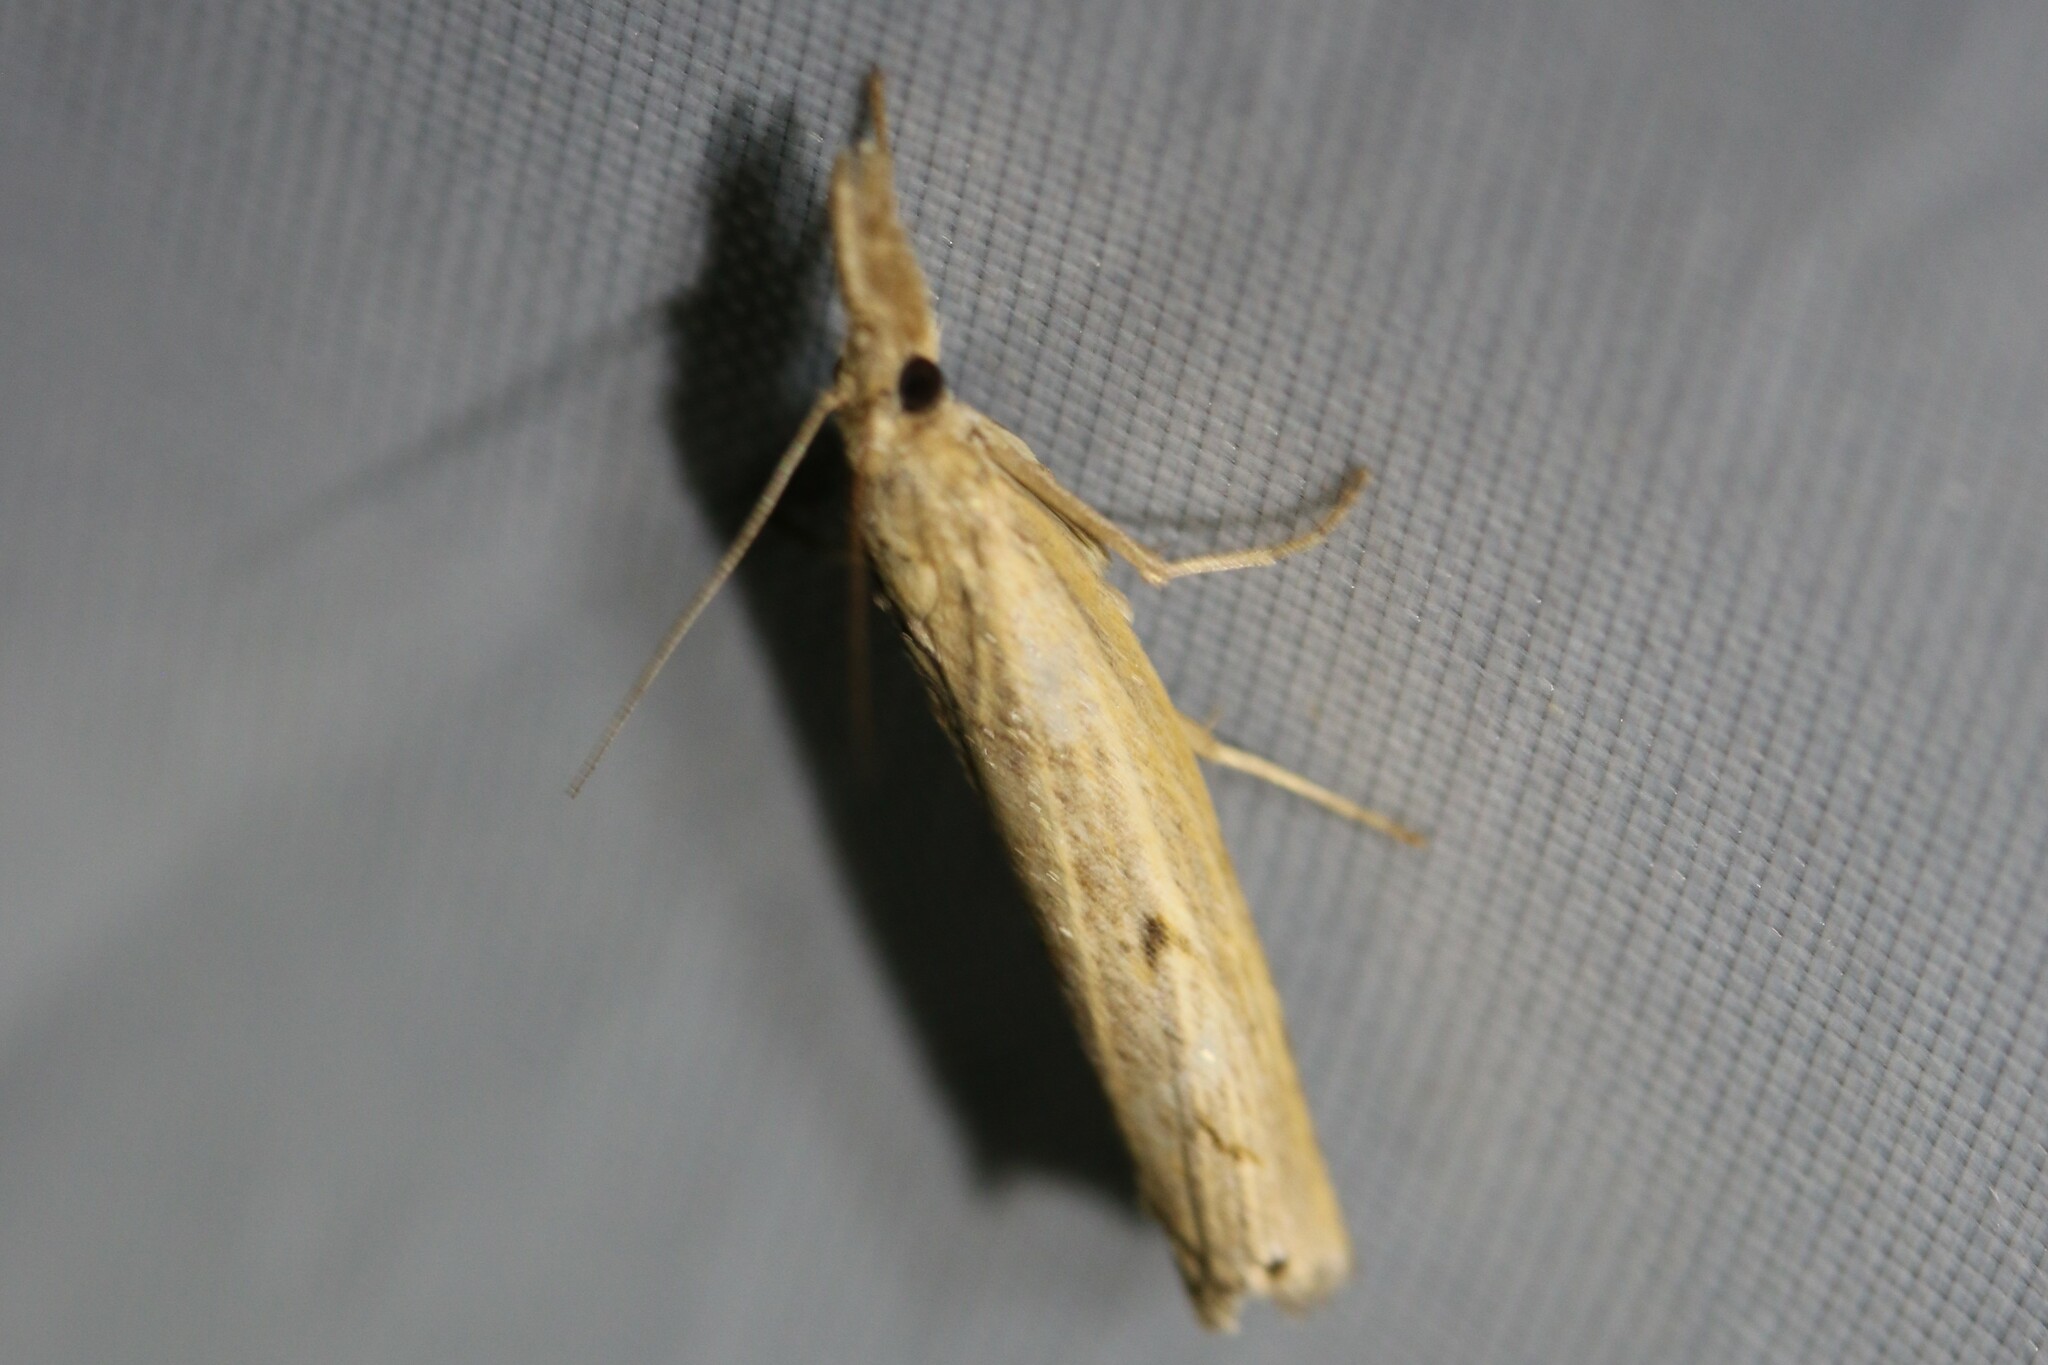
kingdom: Animalia
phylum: Arthropoda
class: Insecta
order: Lepidoptera
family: Crambidae
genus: Pediasia
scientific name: Pediasia contaminella
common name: Waste grass-veneer
